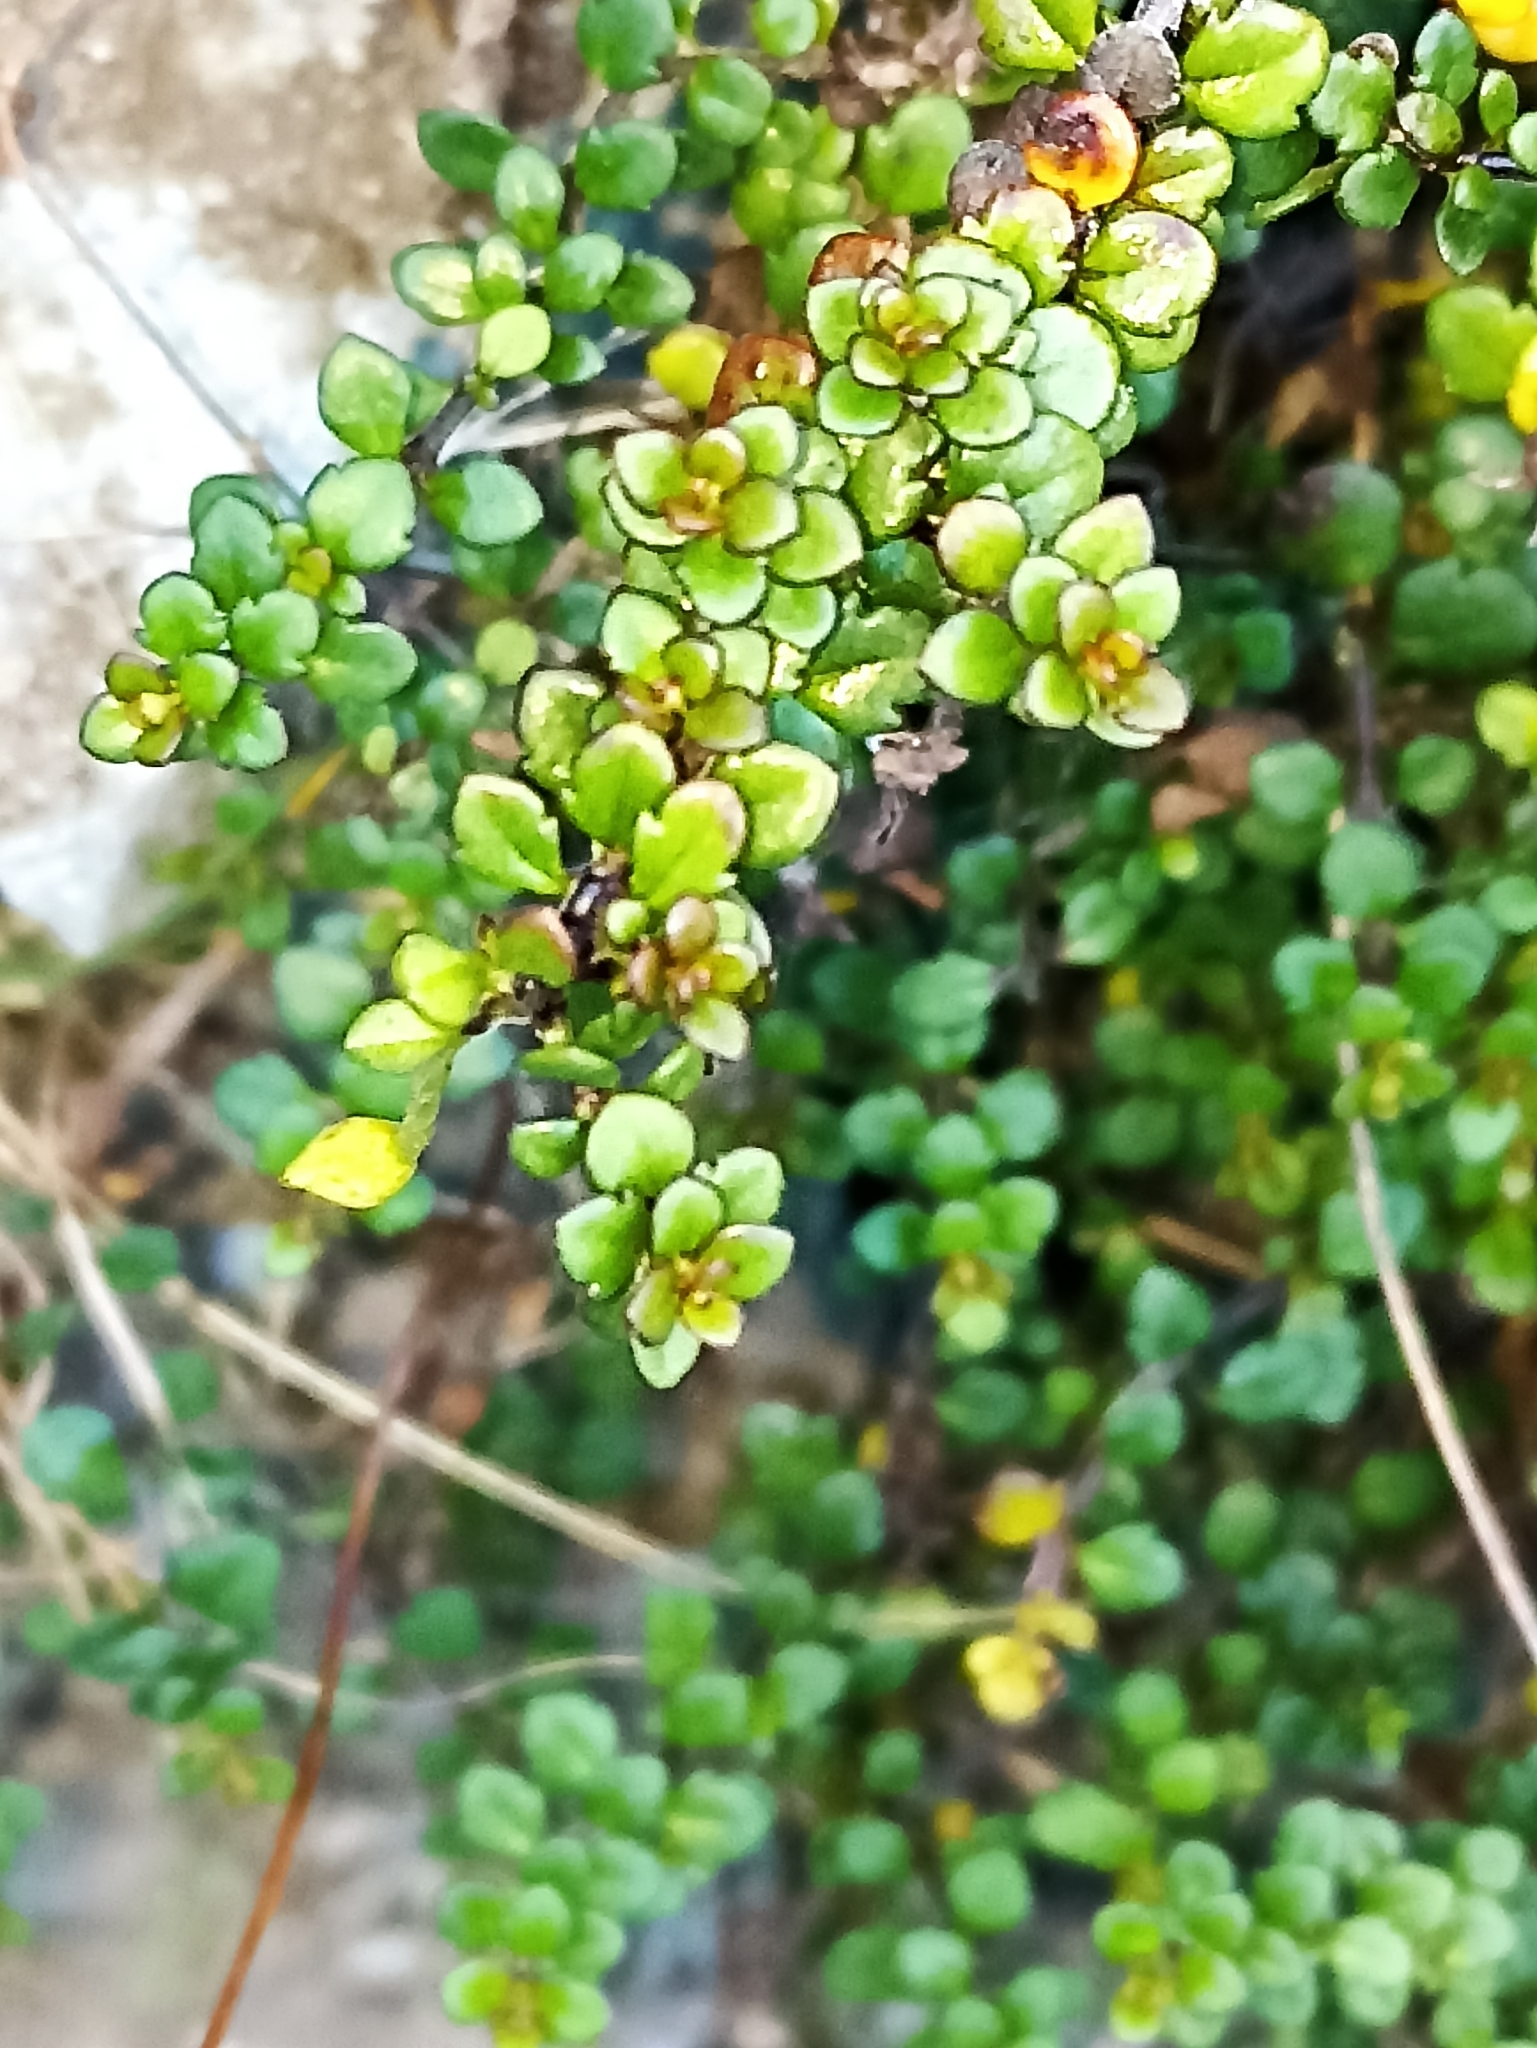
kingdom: Plantae
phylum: Tracheophyta
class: Magnoliopsida
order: Lamiales
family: Plantaginaceae
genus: Veronica
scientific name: Veronica decora
